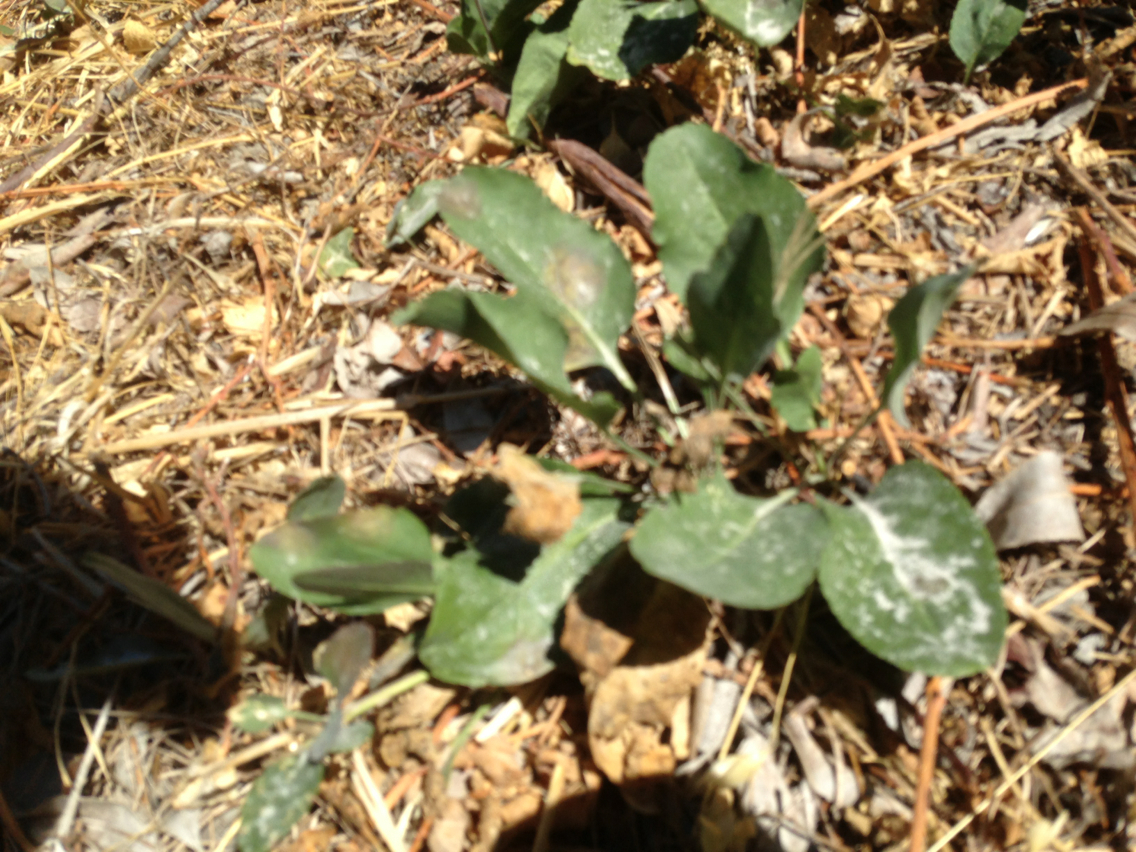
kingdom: Plantae
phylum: Tracheophyta
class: Magnoliopsida
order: Brassicales
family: Brassicaceae
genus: Lepidium
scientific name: Lepidium latifolium
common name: Dittander
